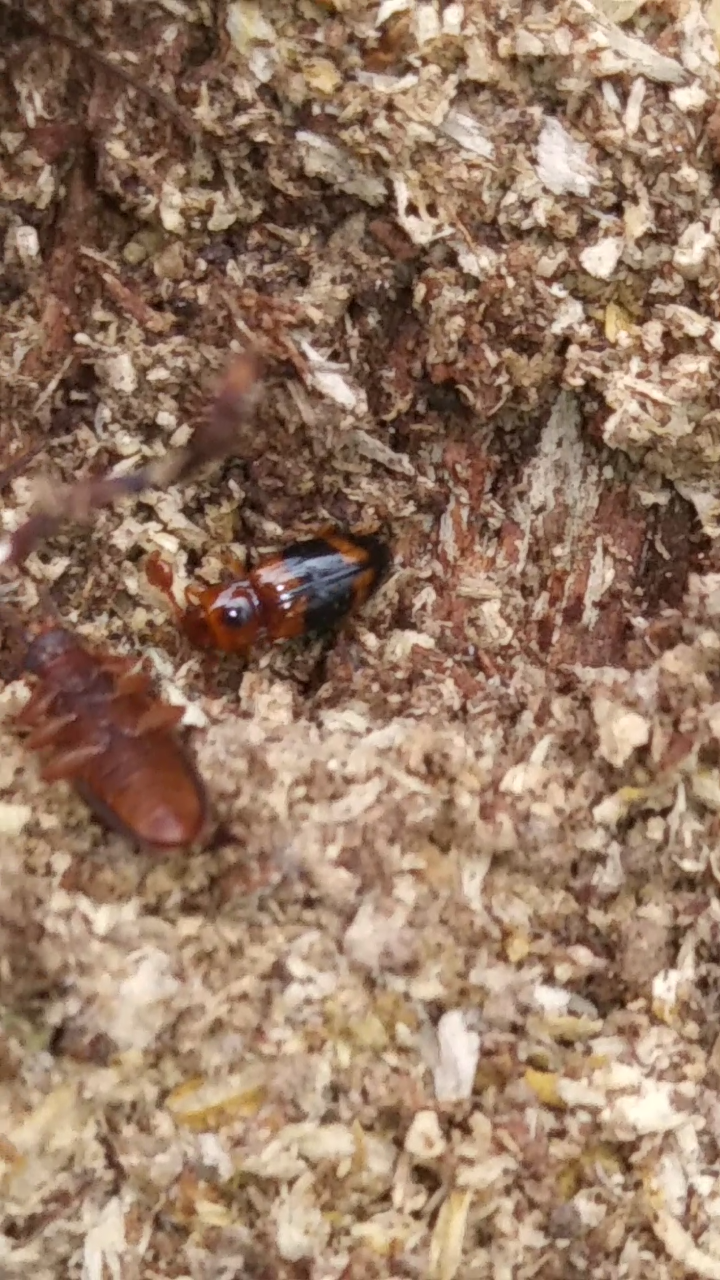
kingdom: Animalia
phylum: Arthropoda
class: Insecta
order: Coleoptera
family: Endomychidae
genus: Phymaphora
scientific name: Phymaphora pulchella
